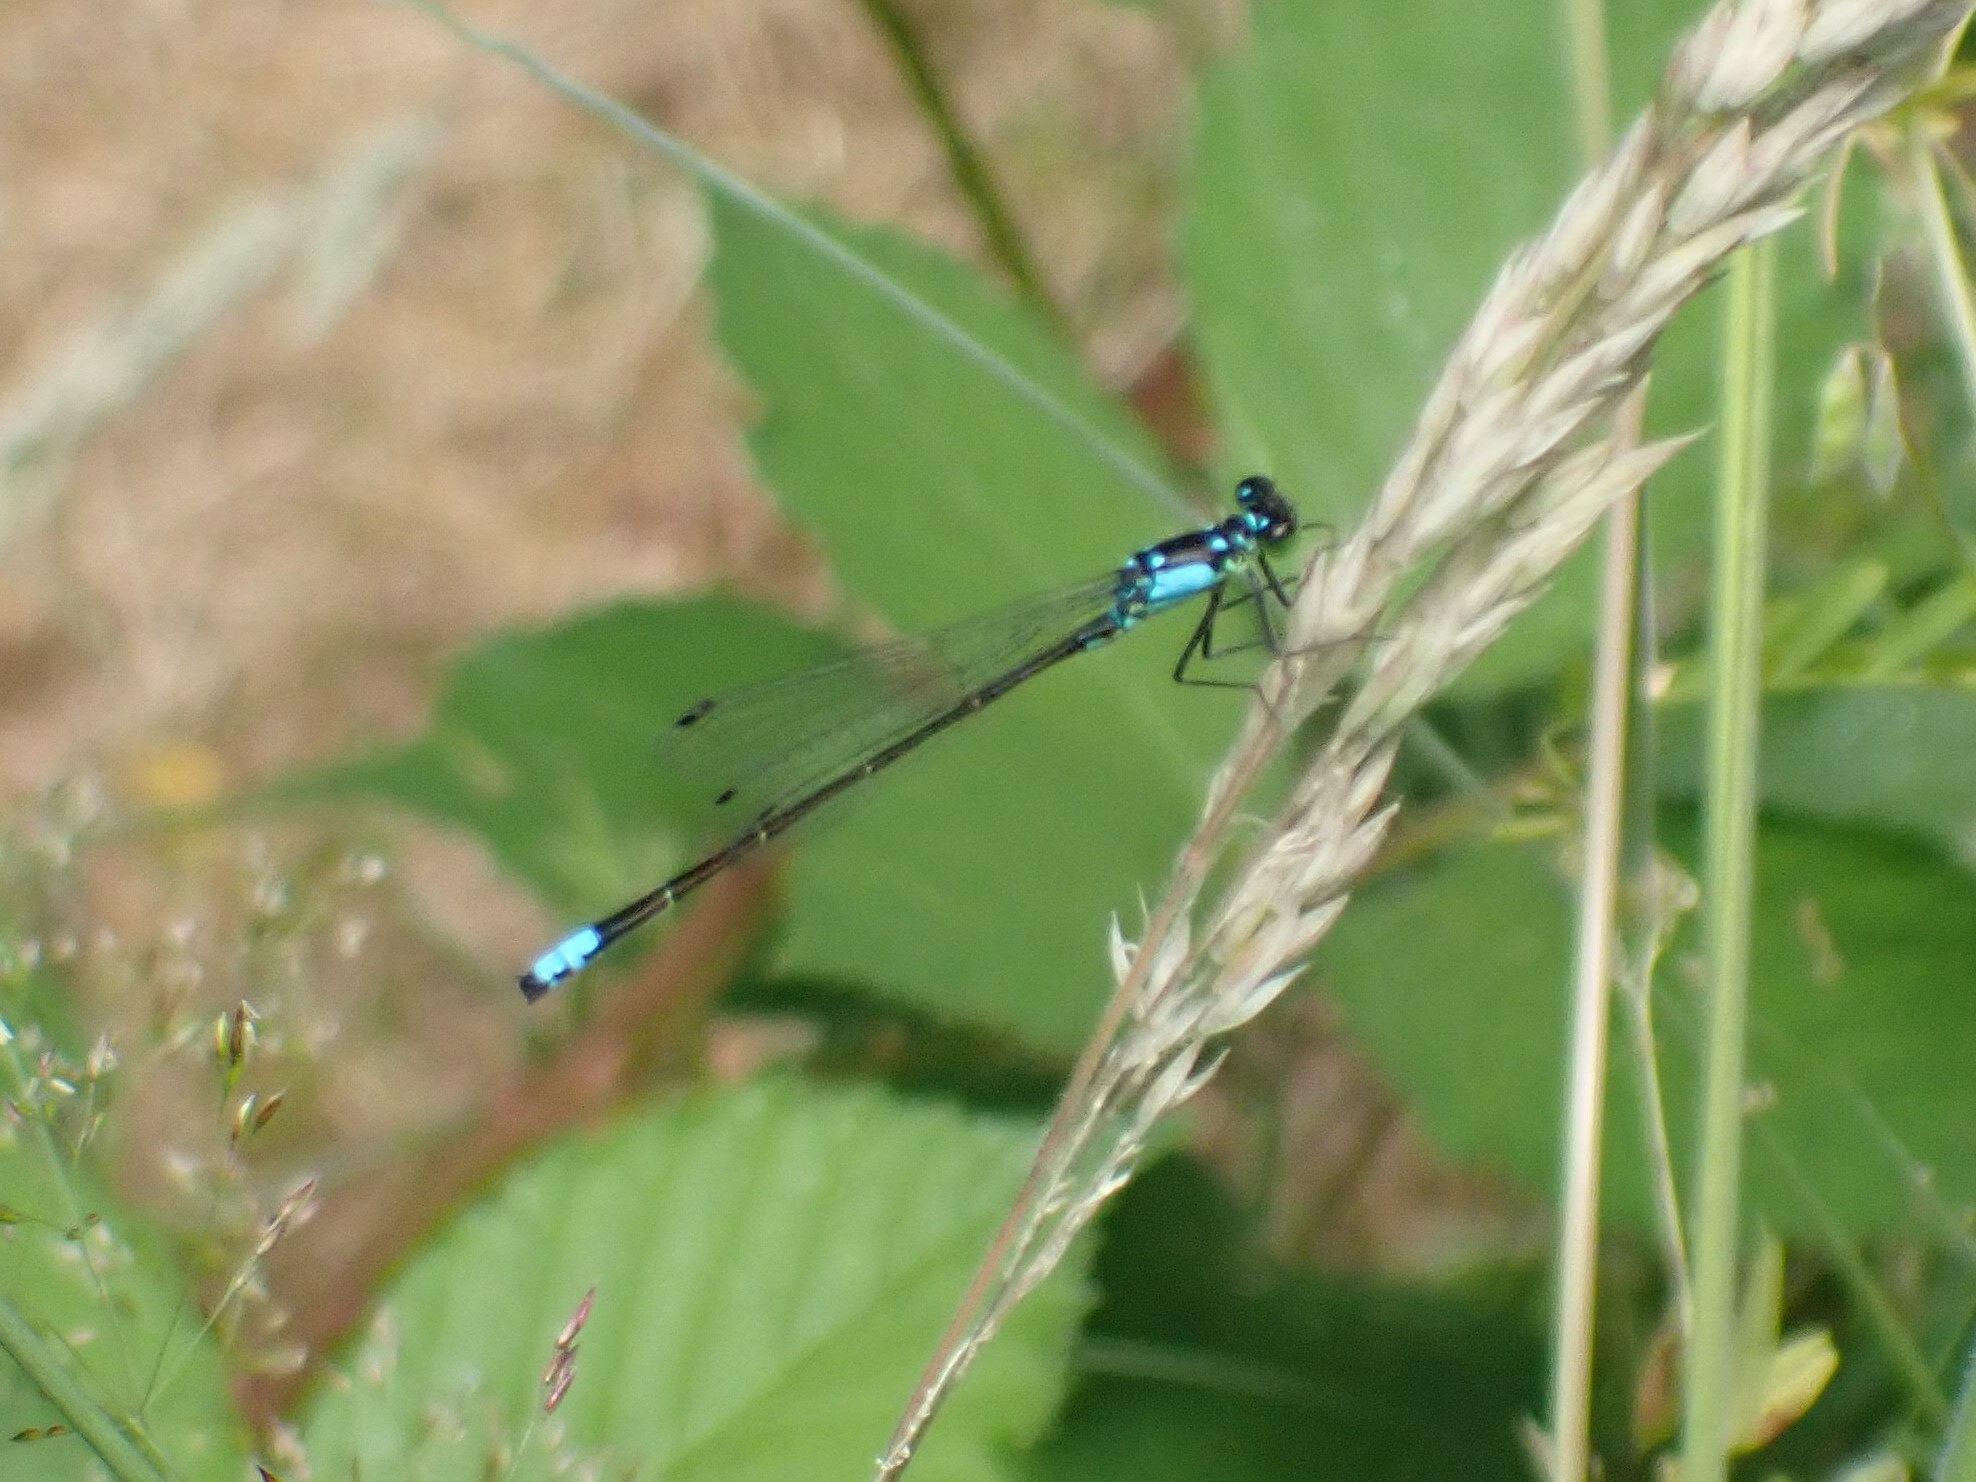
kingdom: Animalia
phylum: Arthropoda
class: Insecta
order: Odonata
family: Coenagrionidae
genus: Ischnura
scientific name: Ischnura cervula
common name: Pacific forktail
